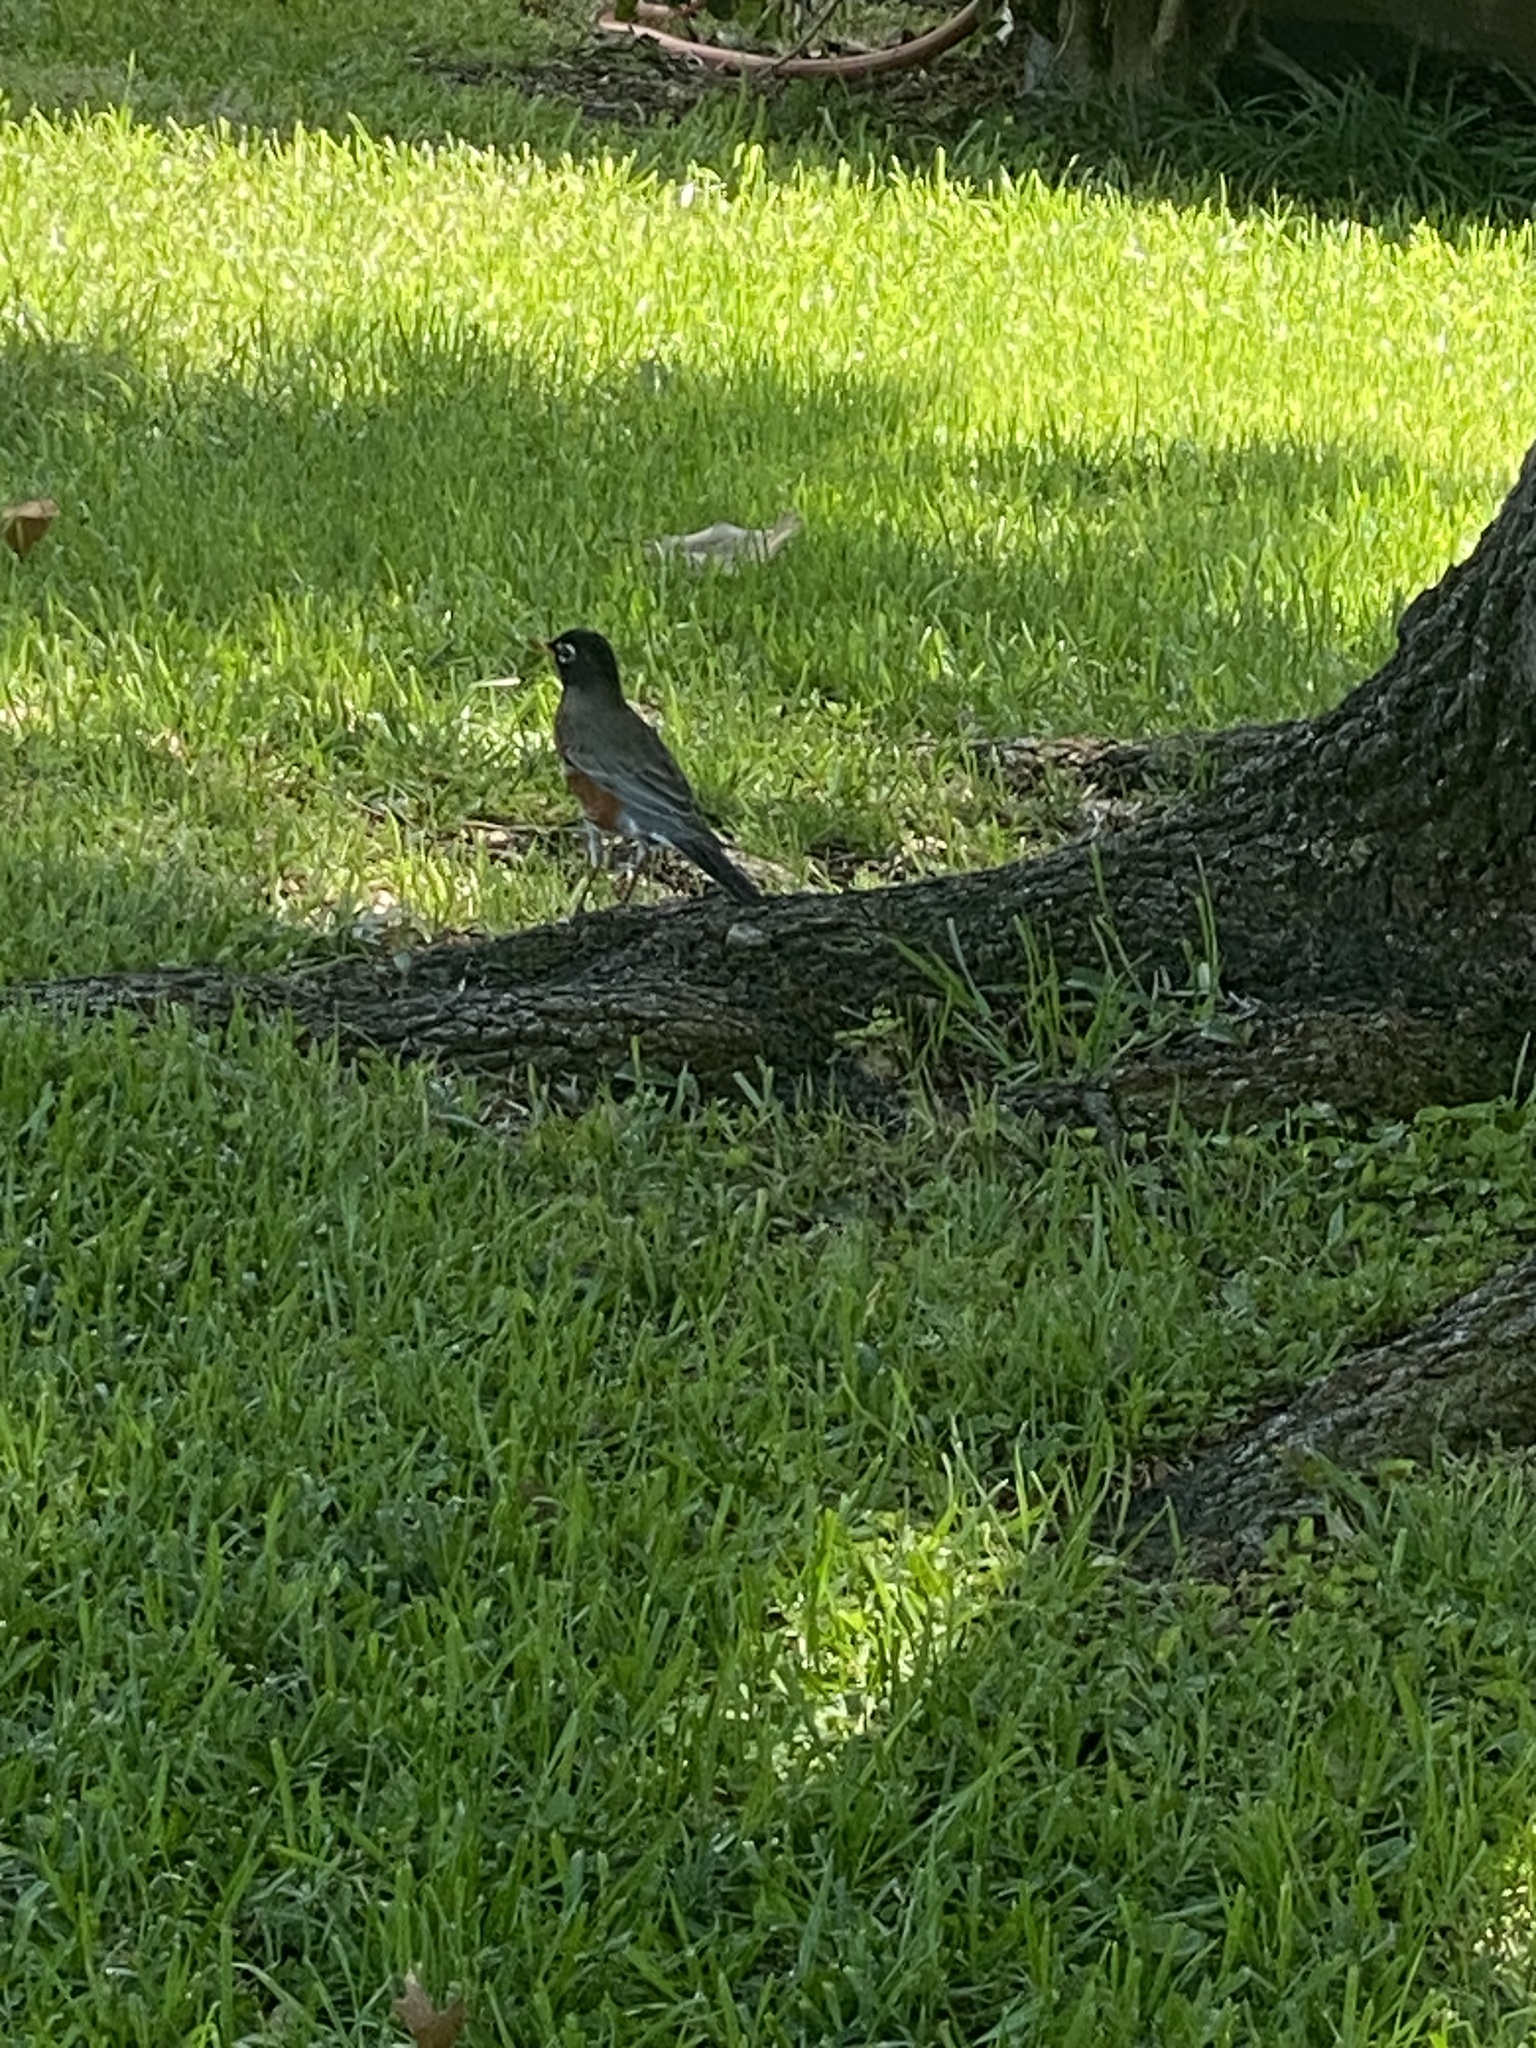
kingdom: Animalia
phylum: Chordata
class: Aves
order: Passeriformes
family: Turdidae
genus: Turdus
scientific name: Turdus migratorius
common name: American robin
